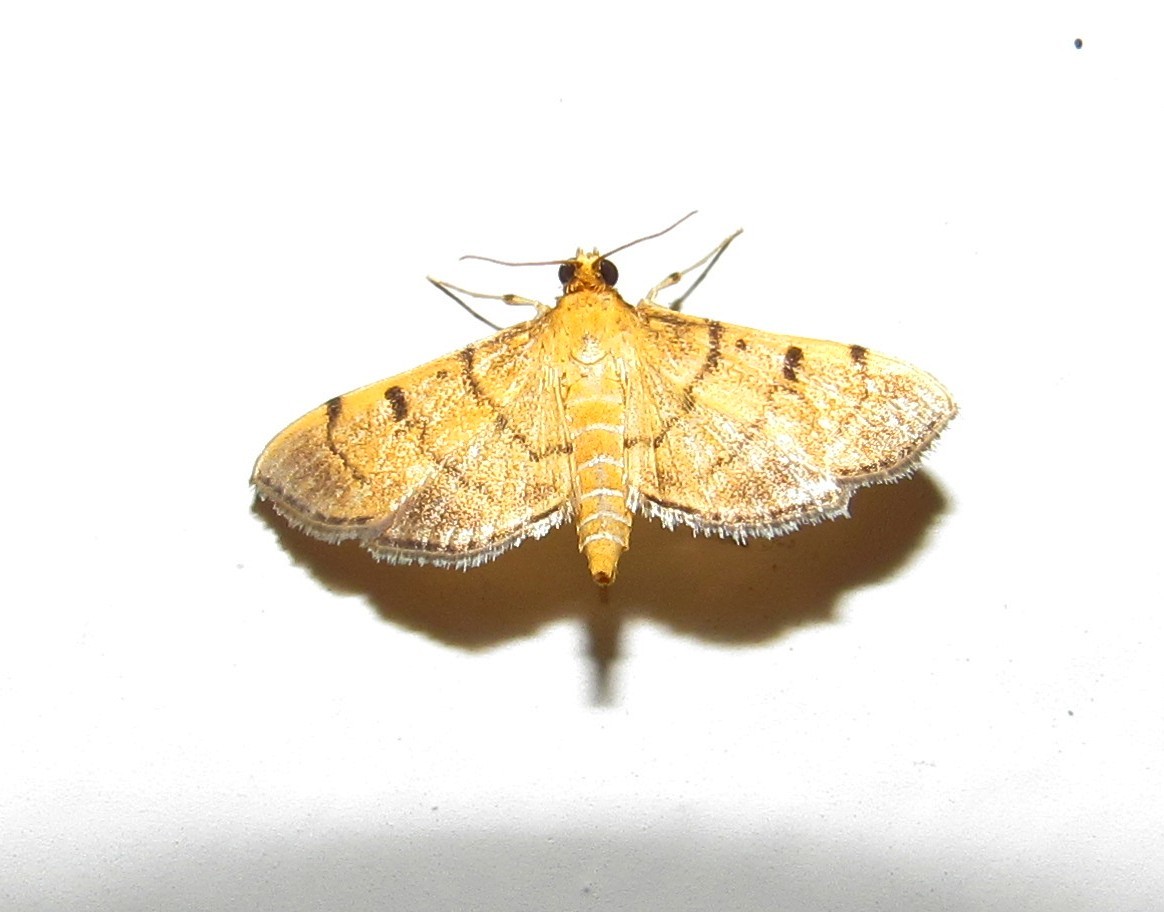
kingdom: Animalia
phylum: Arthropoda
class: Insecta
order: Lepidoptera
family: Crambidae
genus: Omiodes
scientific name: Omiodes indicata
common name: Bean-leaf webworm moth
